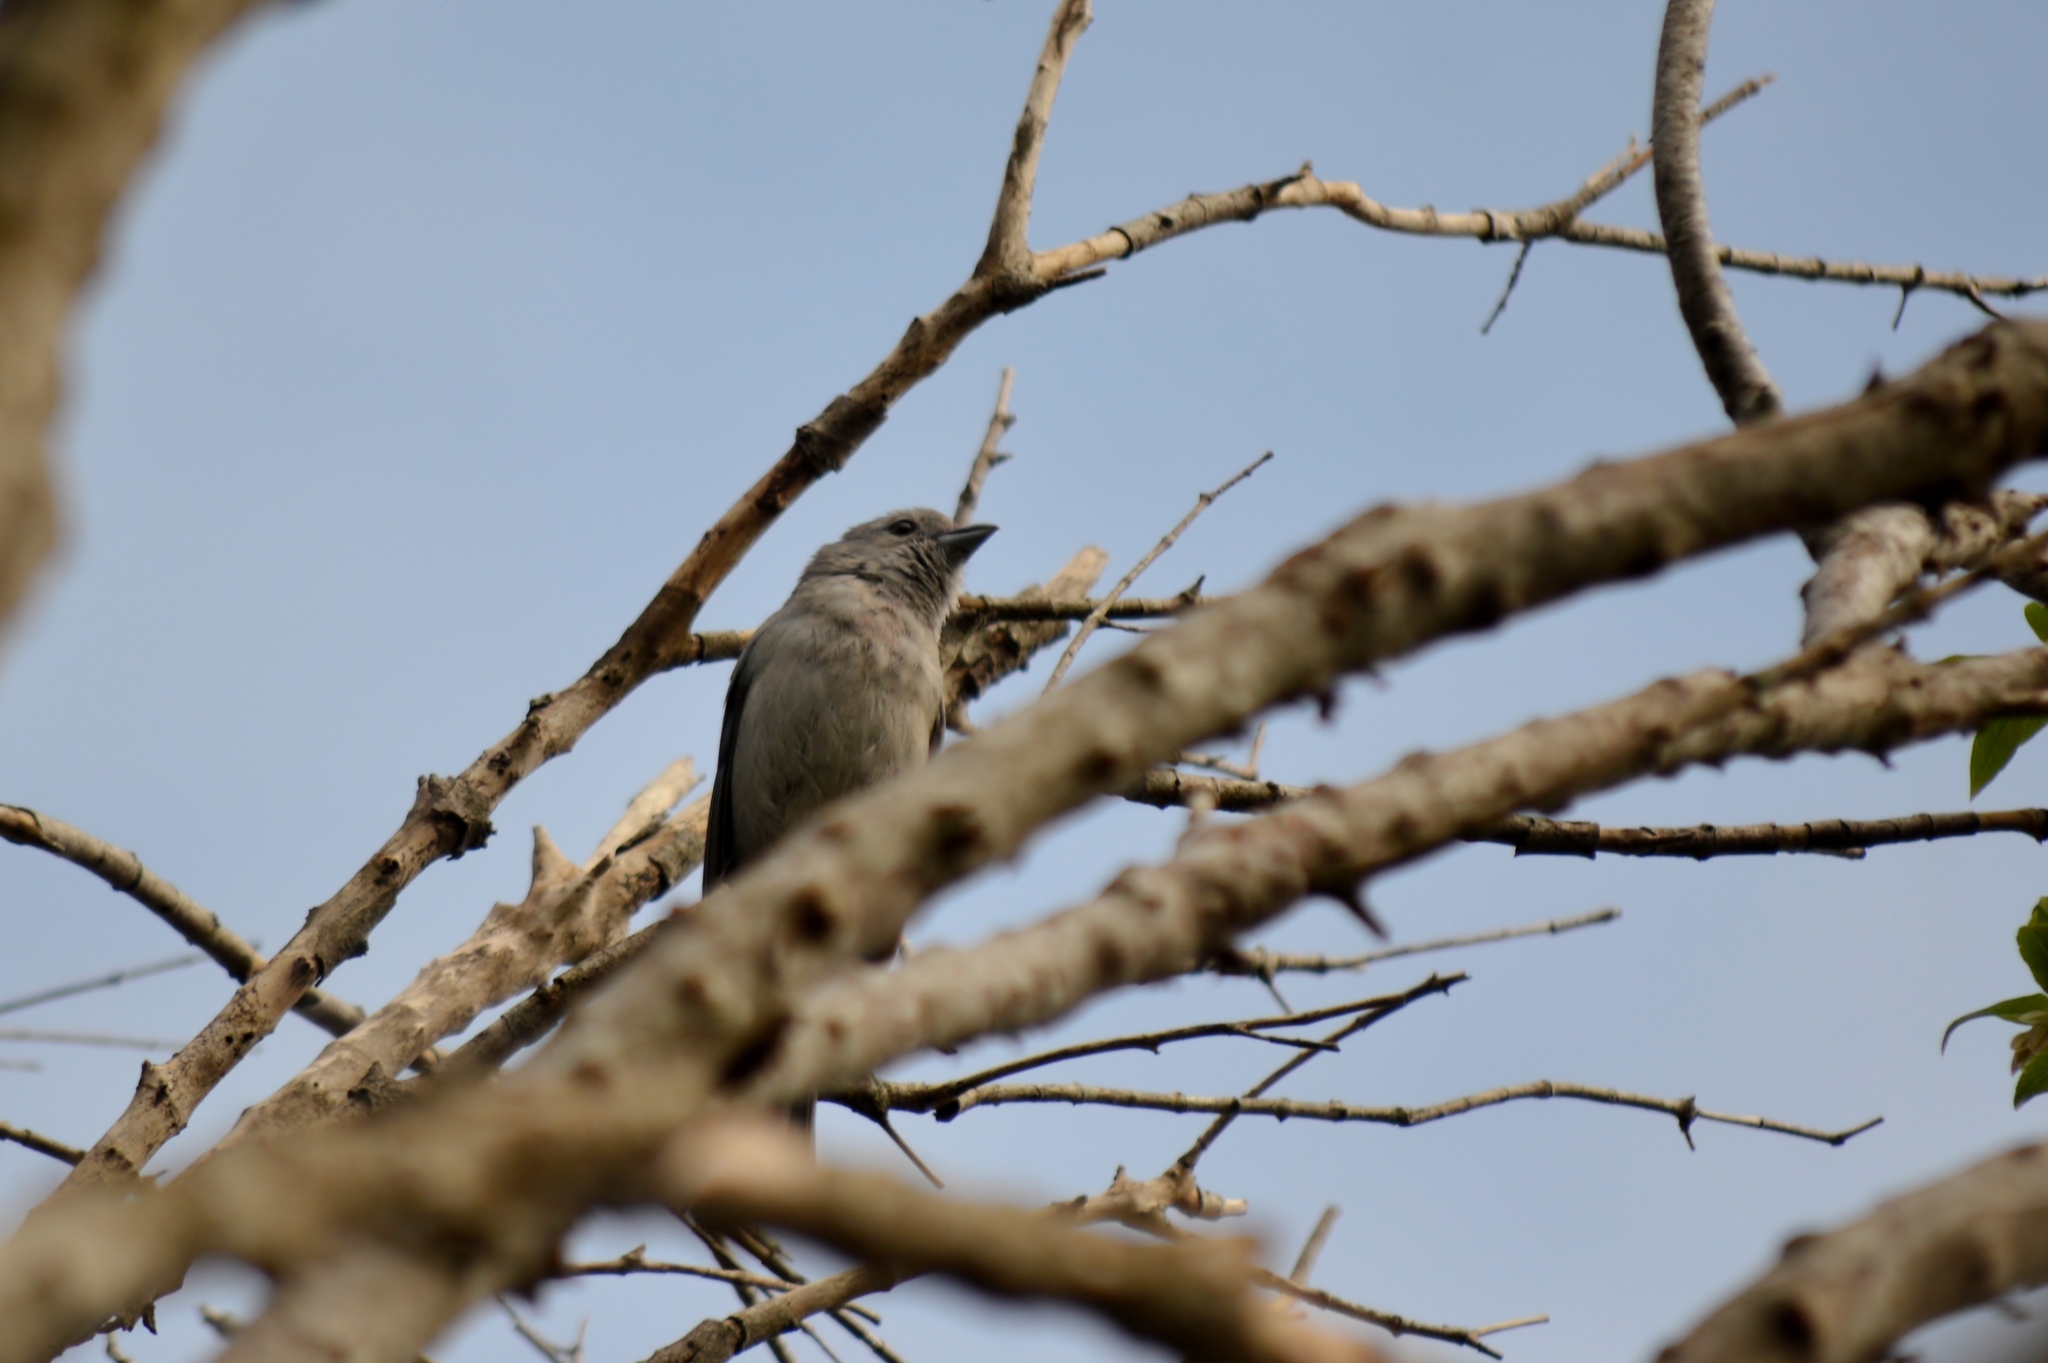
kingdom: Animalia
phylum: Chordata
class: Aves
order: Passeriformes
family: Thraupidae
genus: Thraupis
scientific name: Thraupis sayaca
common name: Sayaca tanager
